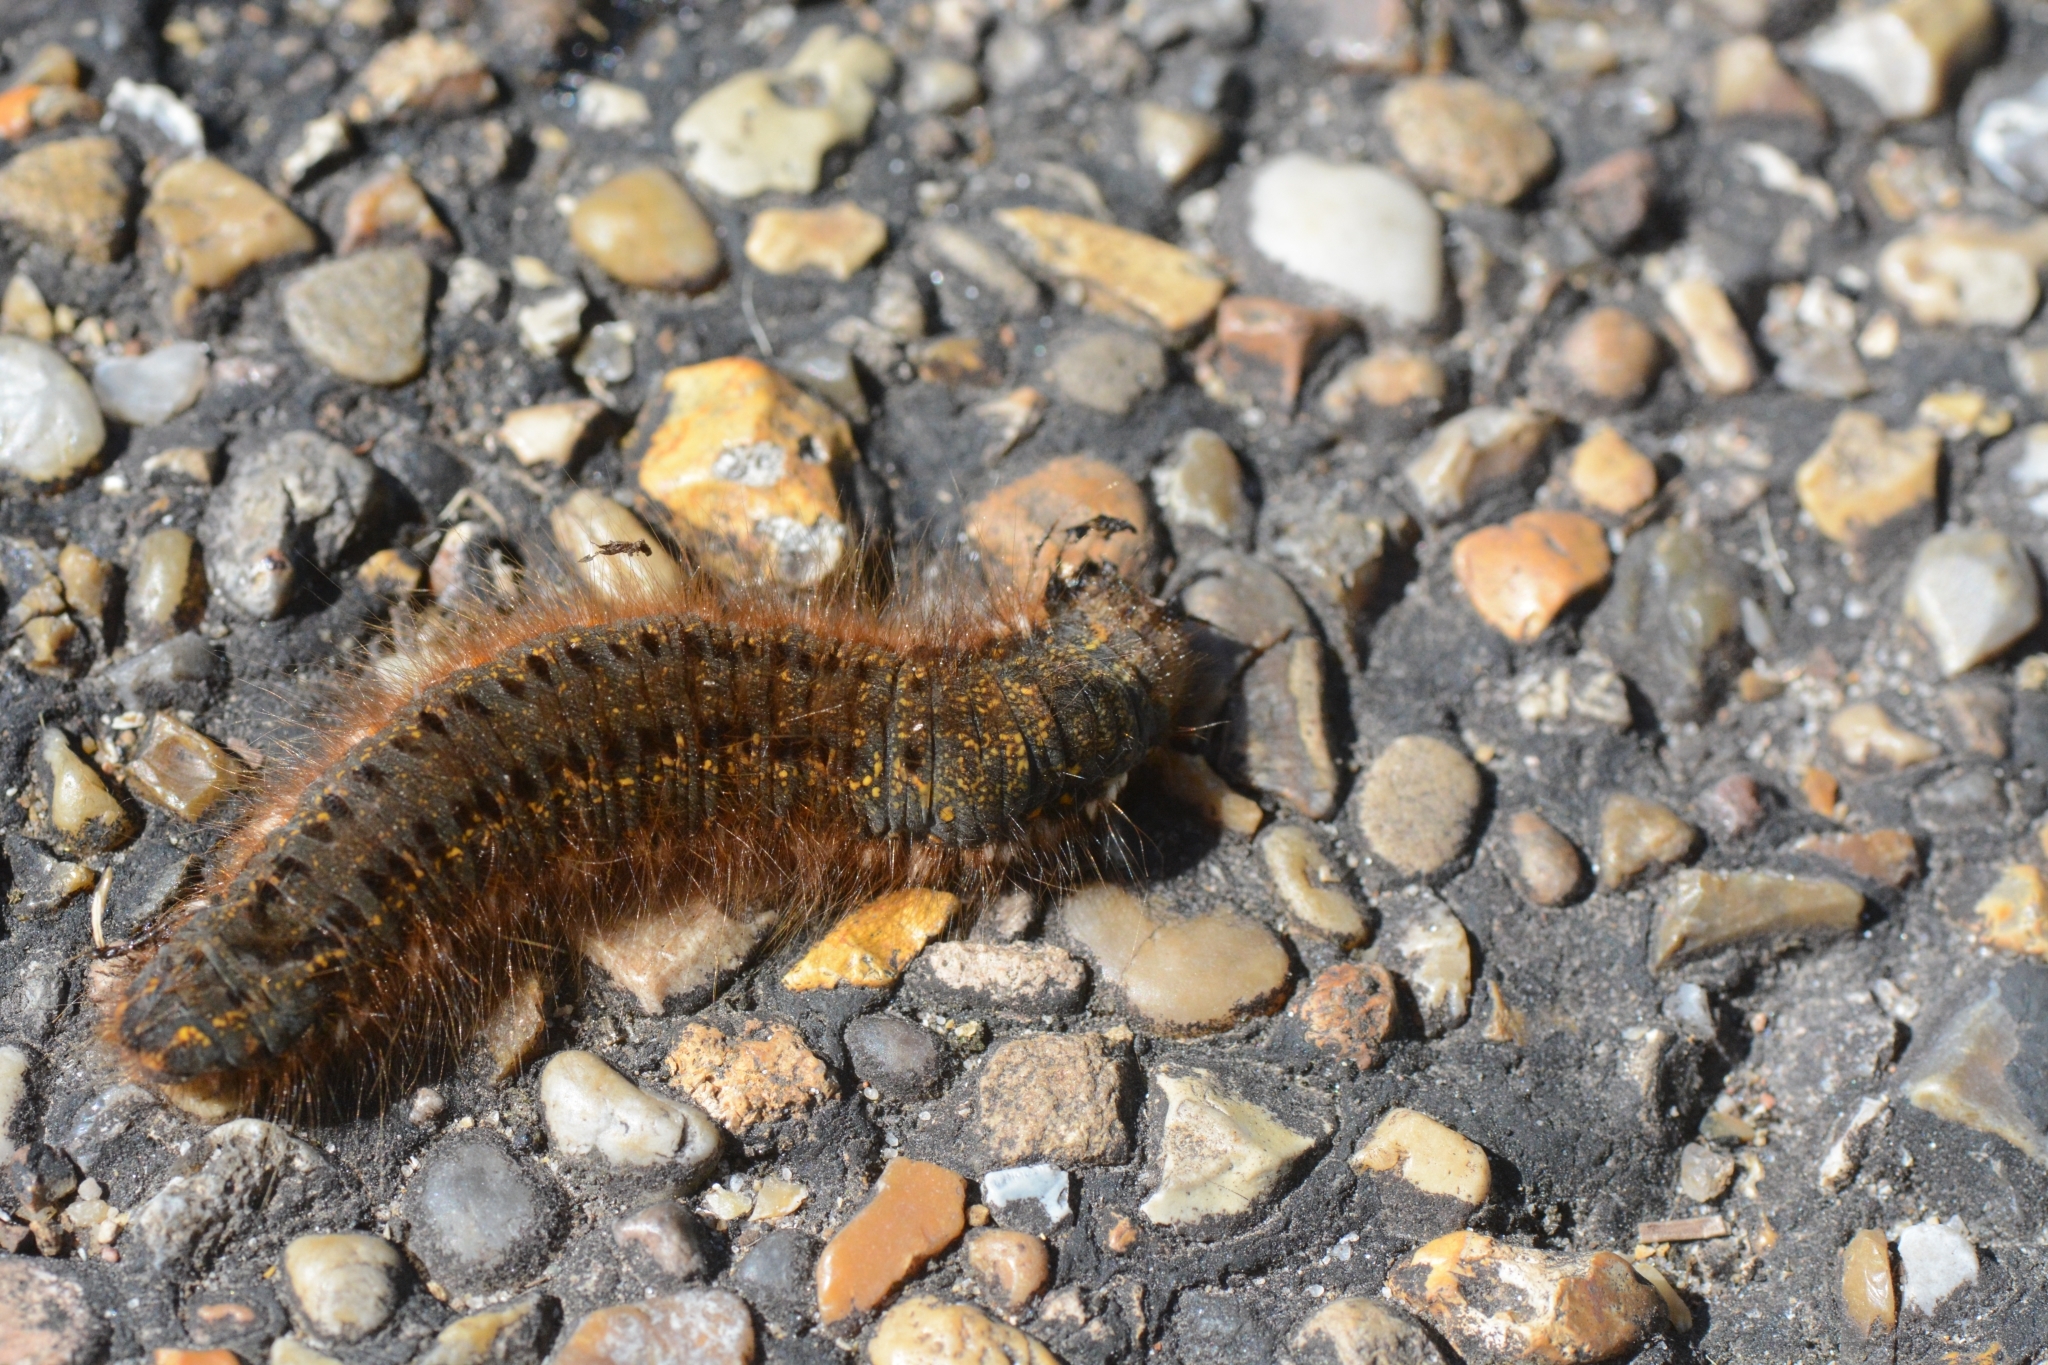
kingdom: Animalia
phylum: Arthropoda
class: Insecta
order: Lepidoptera
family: Lasiocampidae
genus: Euthrix
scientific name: Euthrix potatoria
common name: Drinker
